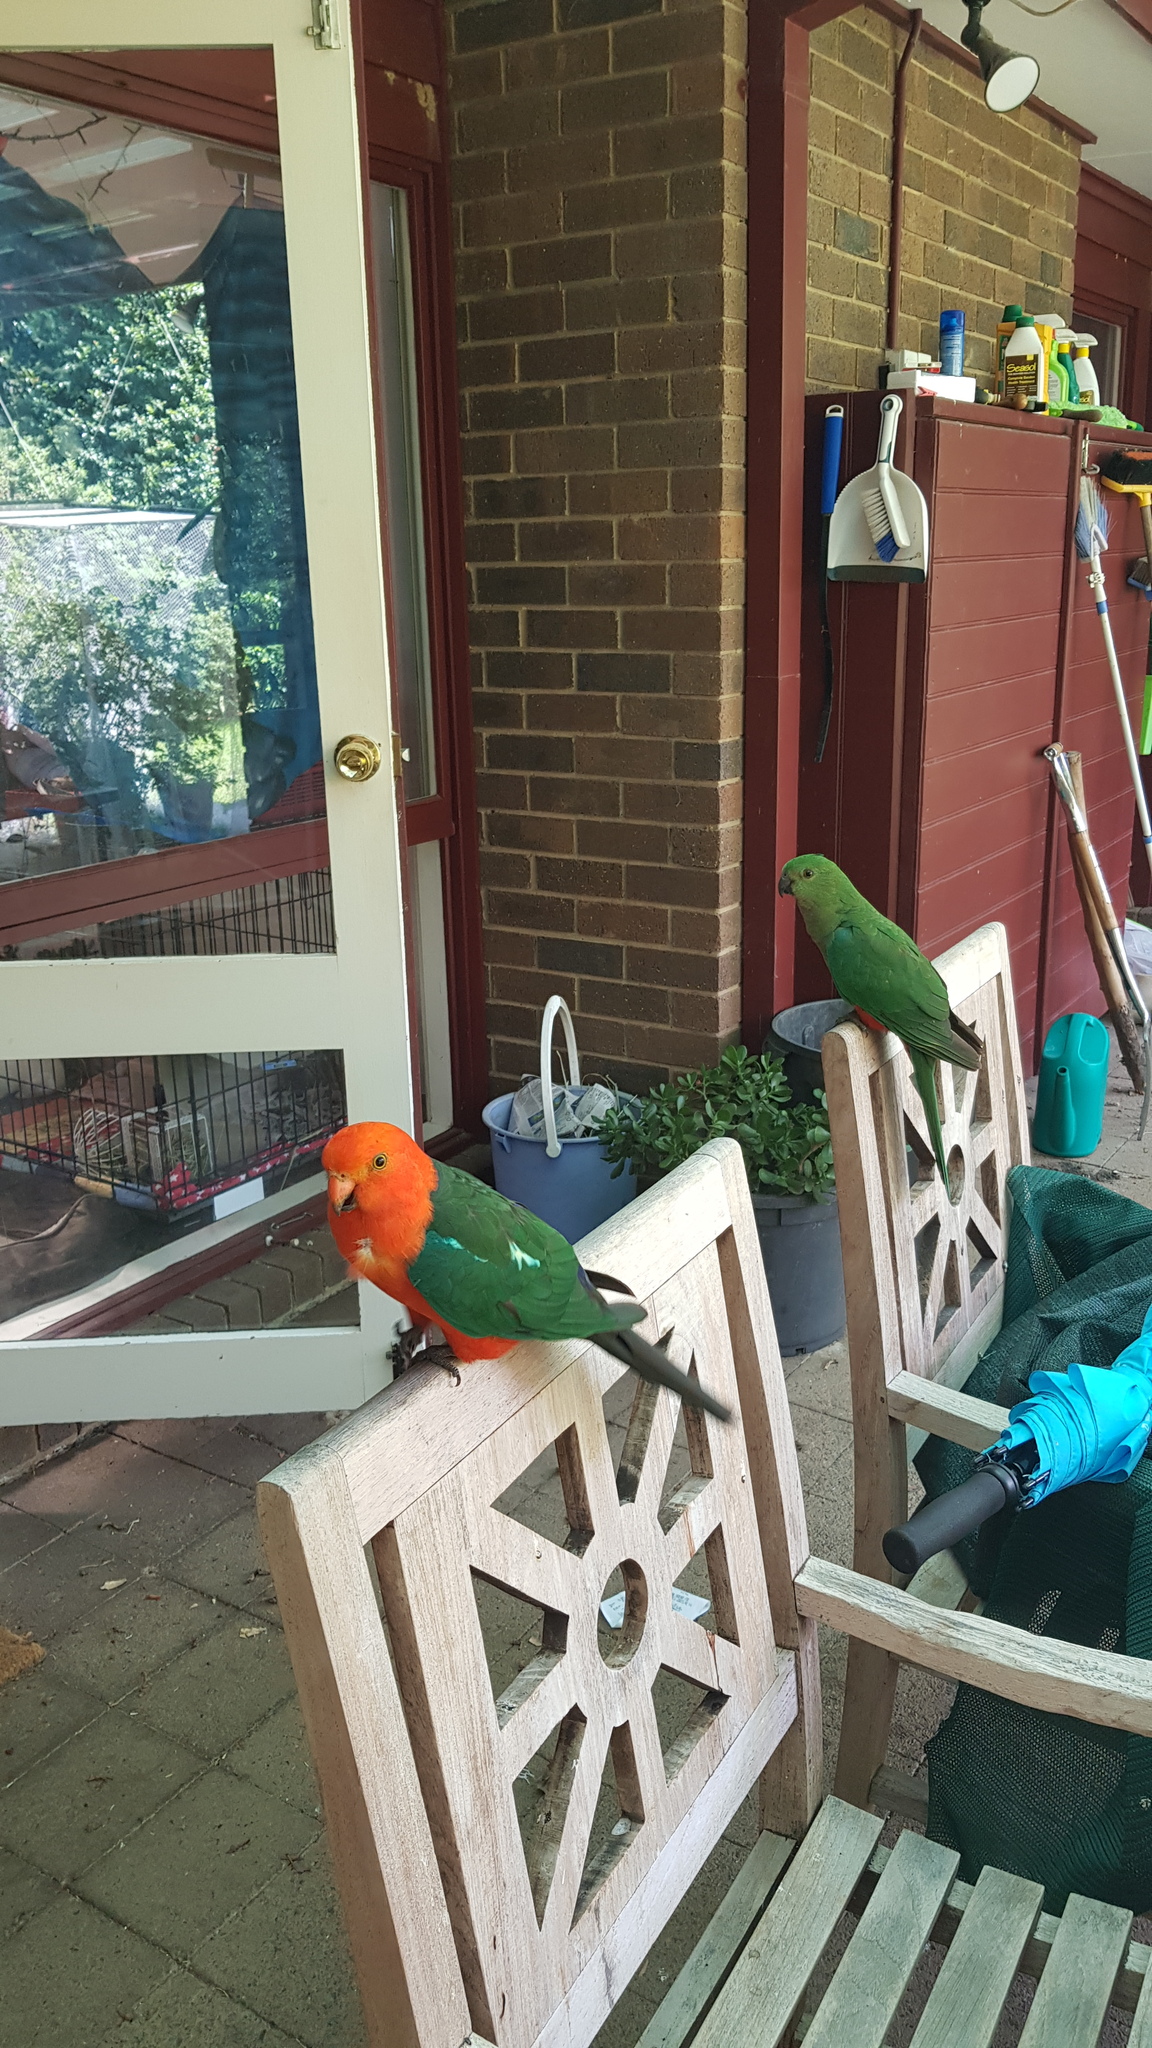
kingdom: Animalia
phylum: Chordata
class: Aves
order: Psittaciformes
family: Psittacidae
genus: Alisterus
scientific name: Alisterus scapularis
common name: Australian king parrot
